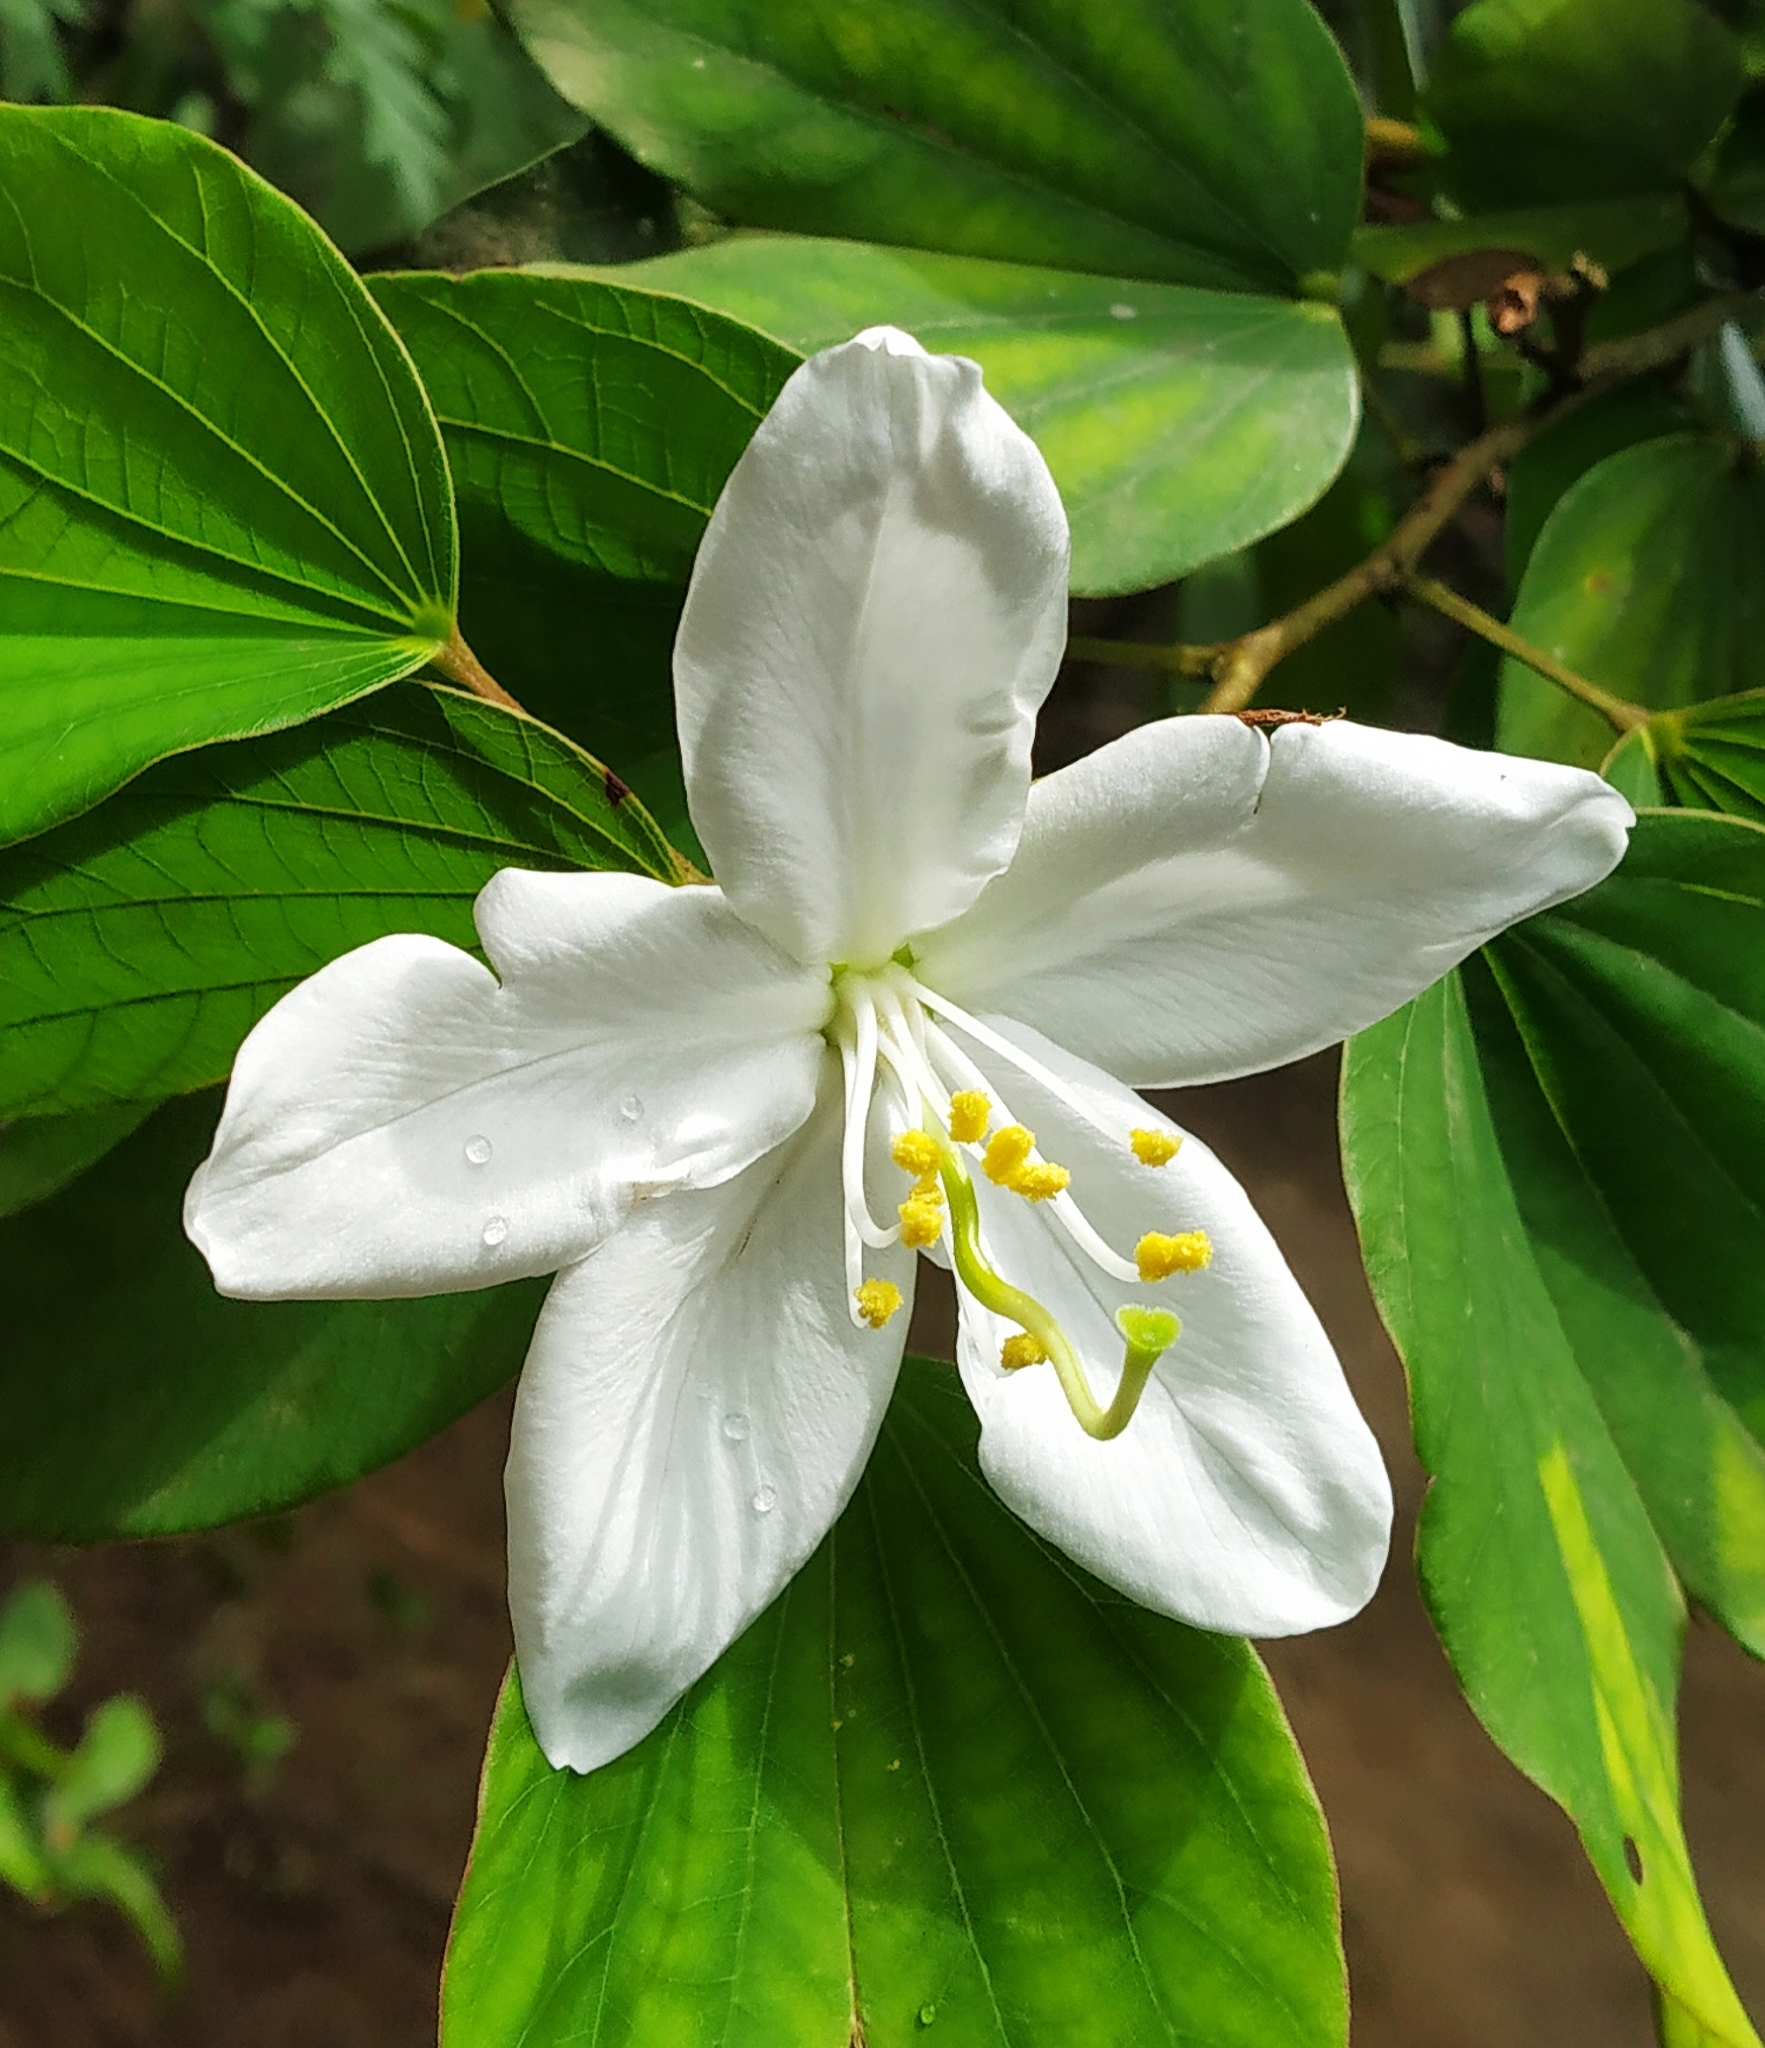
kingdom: Plantae
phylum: Tracheophyta
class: Magnoliopsida
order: Fabales
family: Fabaceae
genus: Bauhinia
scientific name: Bauhinia acuminata
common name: Dwarf white bauhinia
